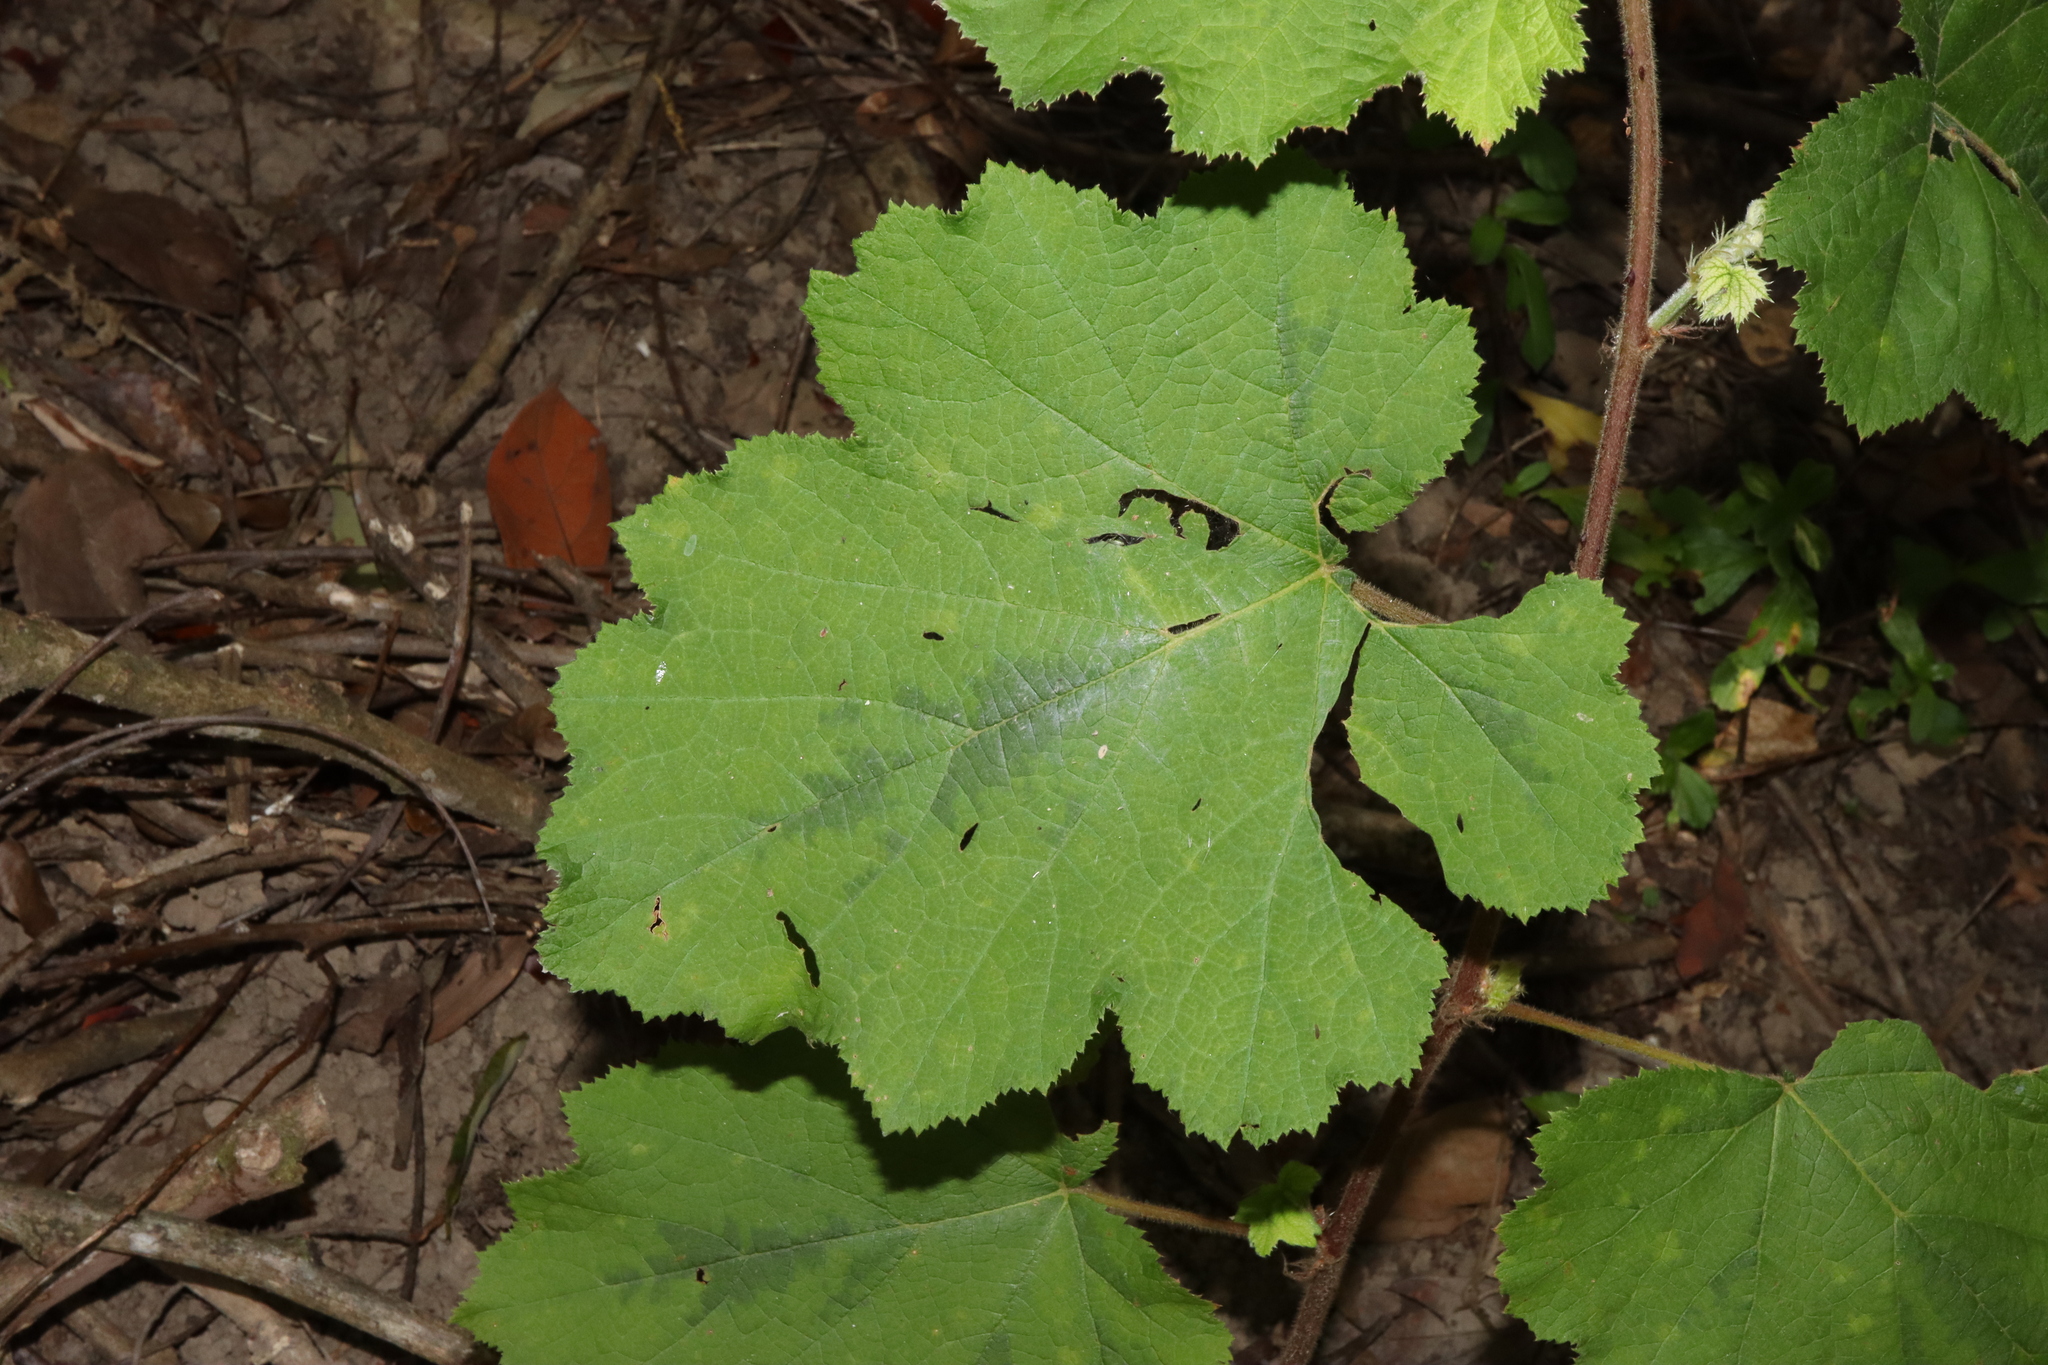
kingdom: Plantae
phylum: Tracheophyta
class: Magnoliopsida
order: Rosales
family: Rosaceae
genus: Rubus
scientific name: Rubus alceifolius
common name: Giant bramble
